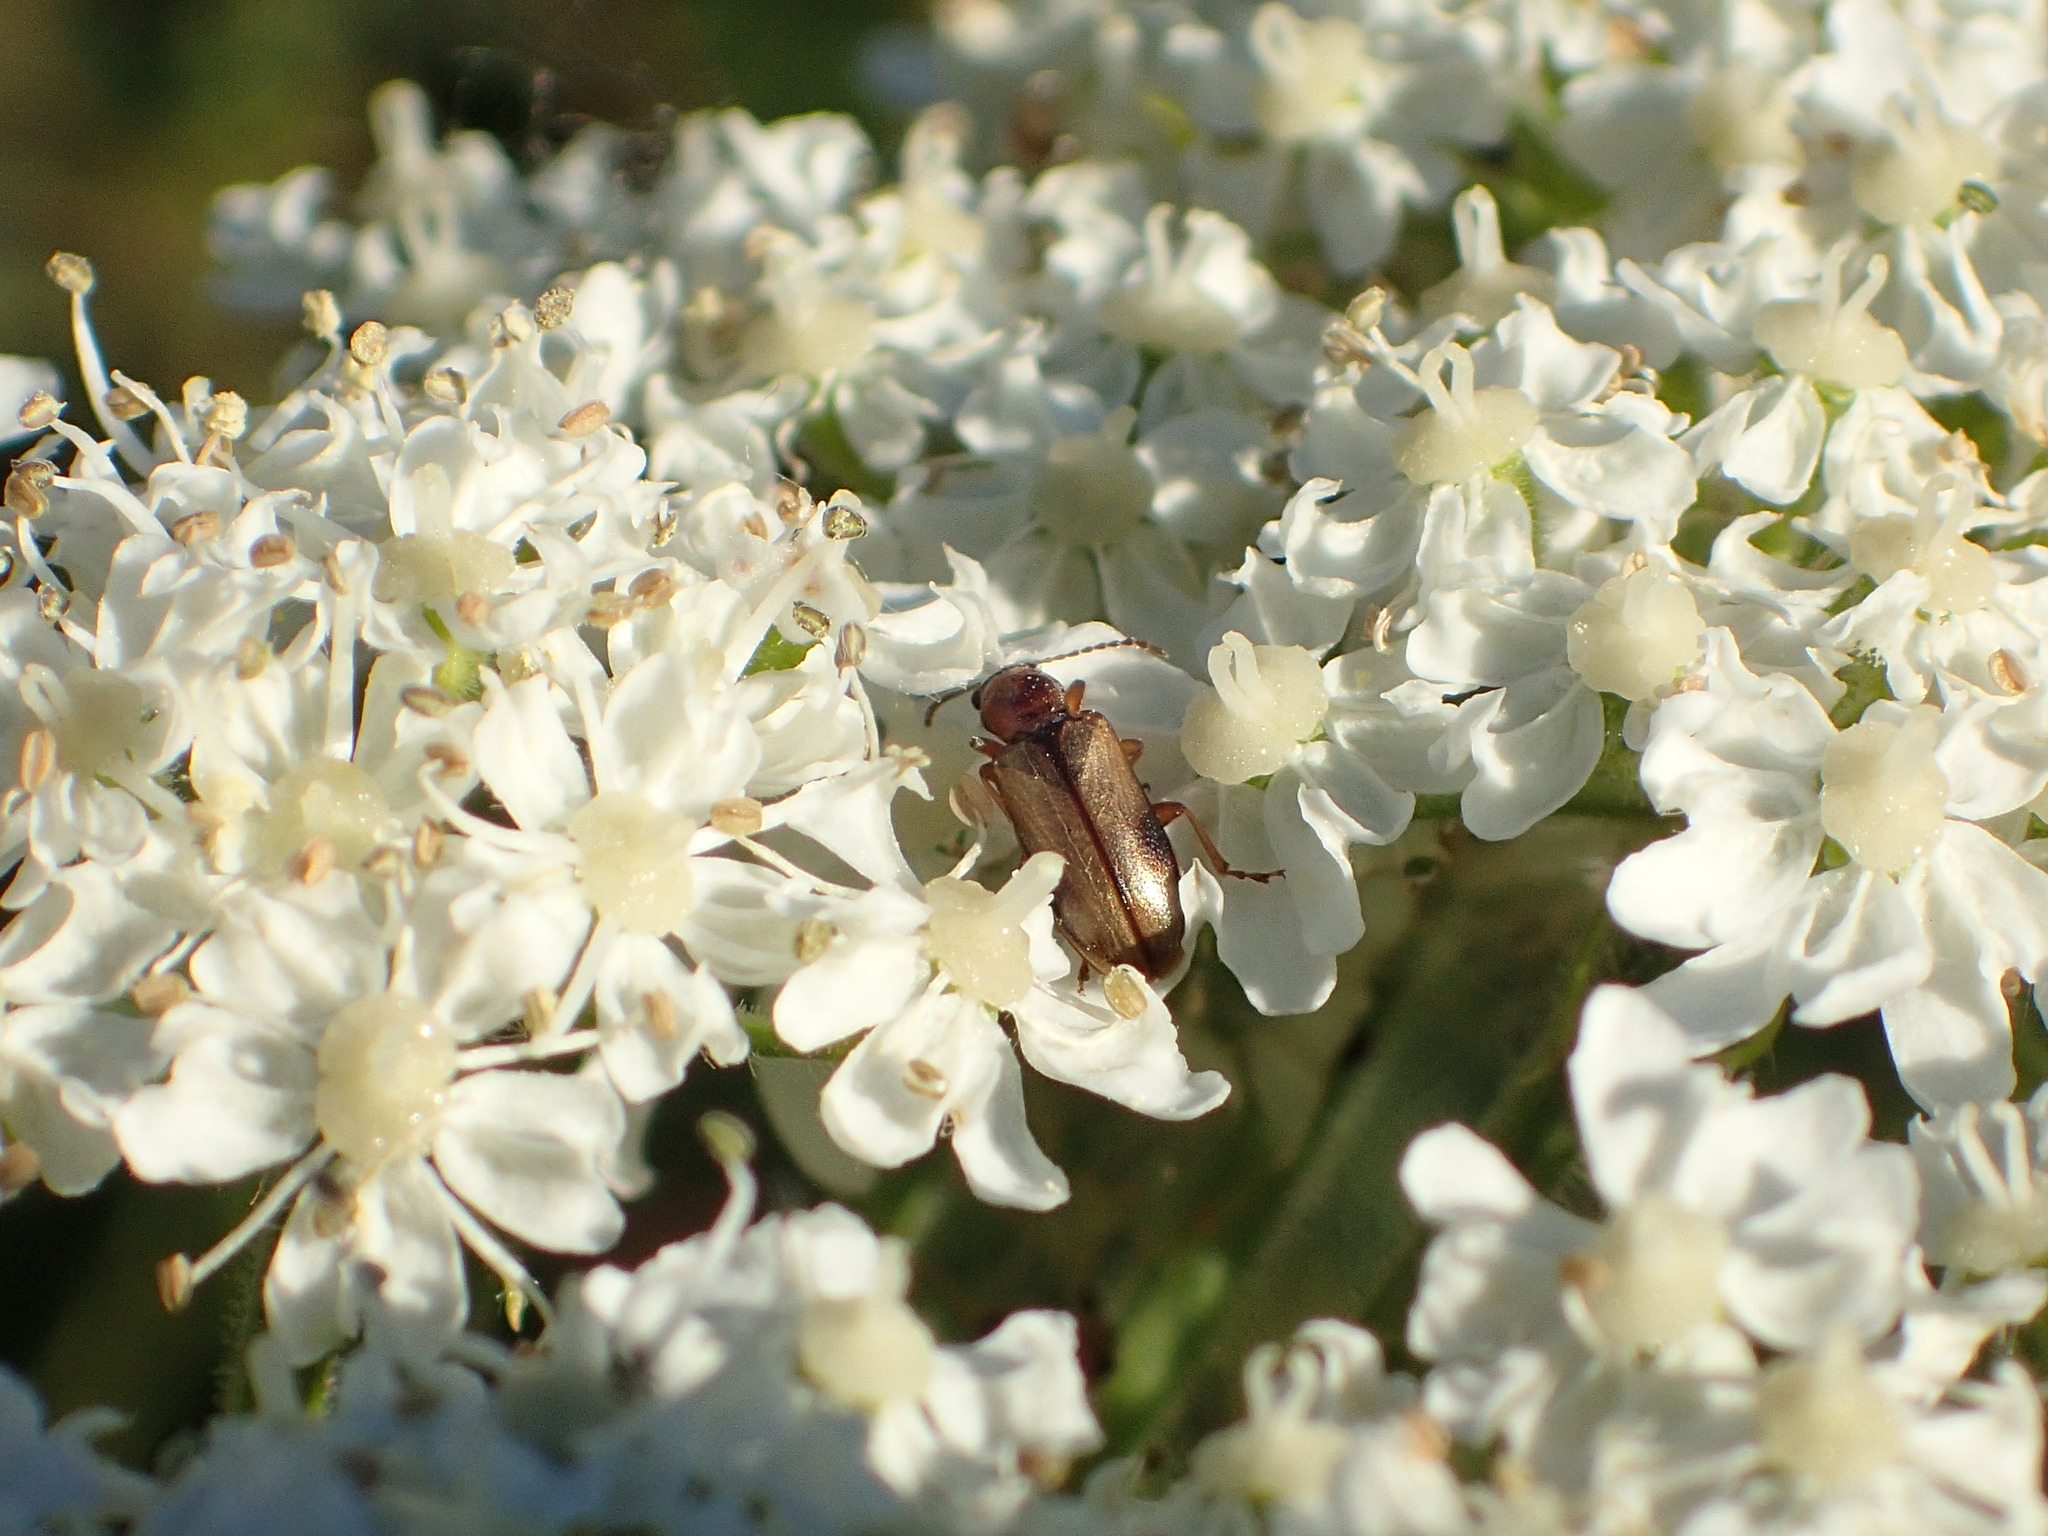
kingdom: Animalia
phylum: Arthropoda
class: Insecta
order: Coleoptera
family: Orsodacnidae
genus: Orsodacne
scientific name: Orsodacne atra
